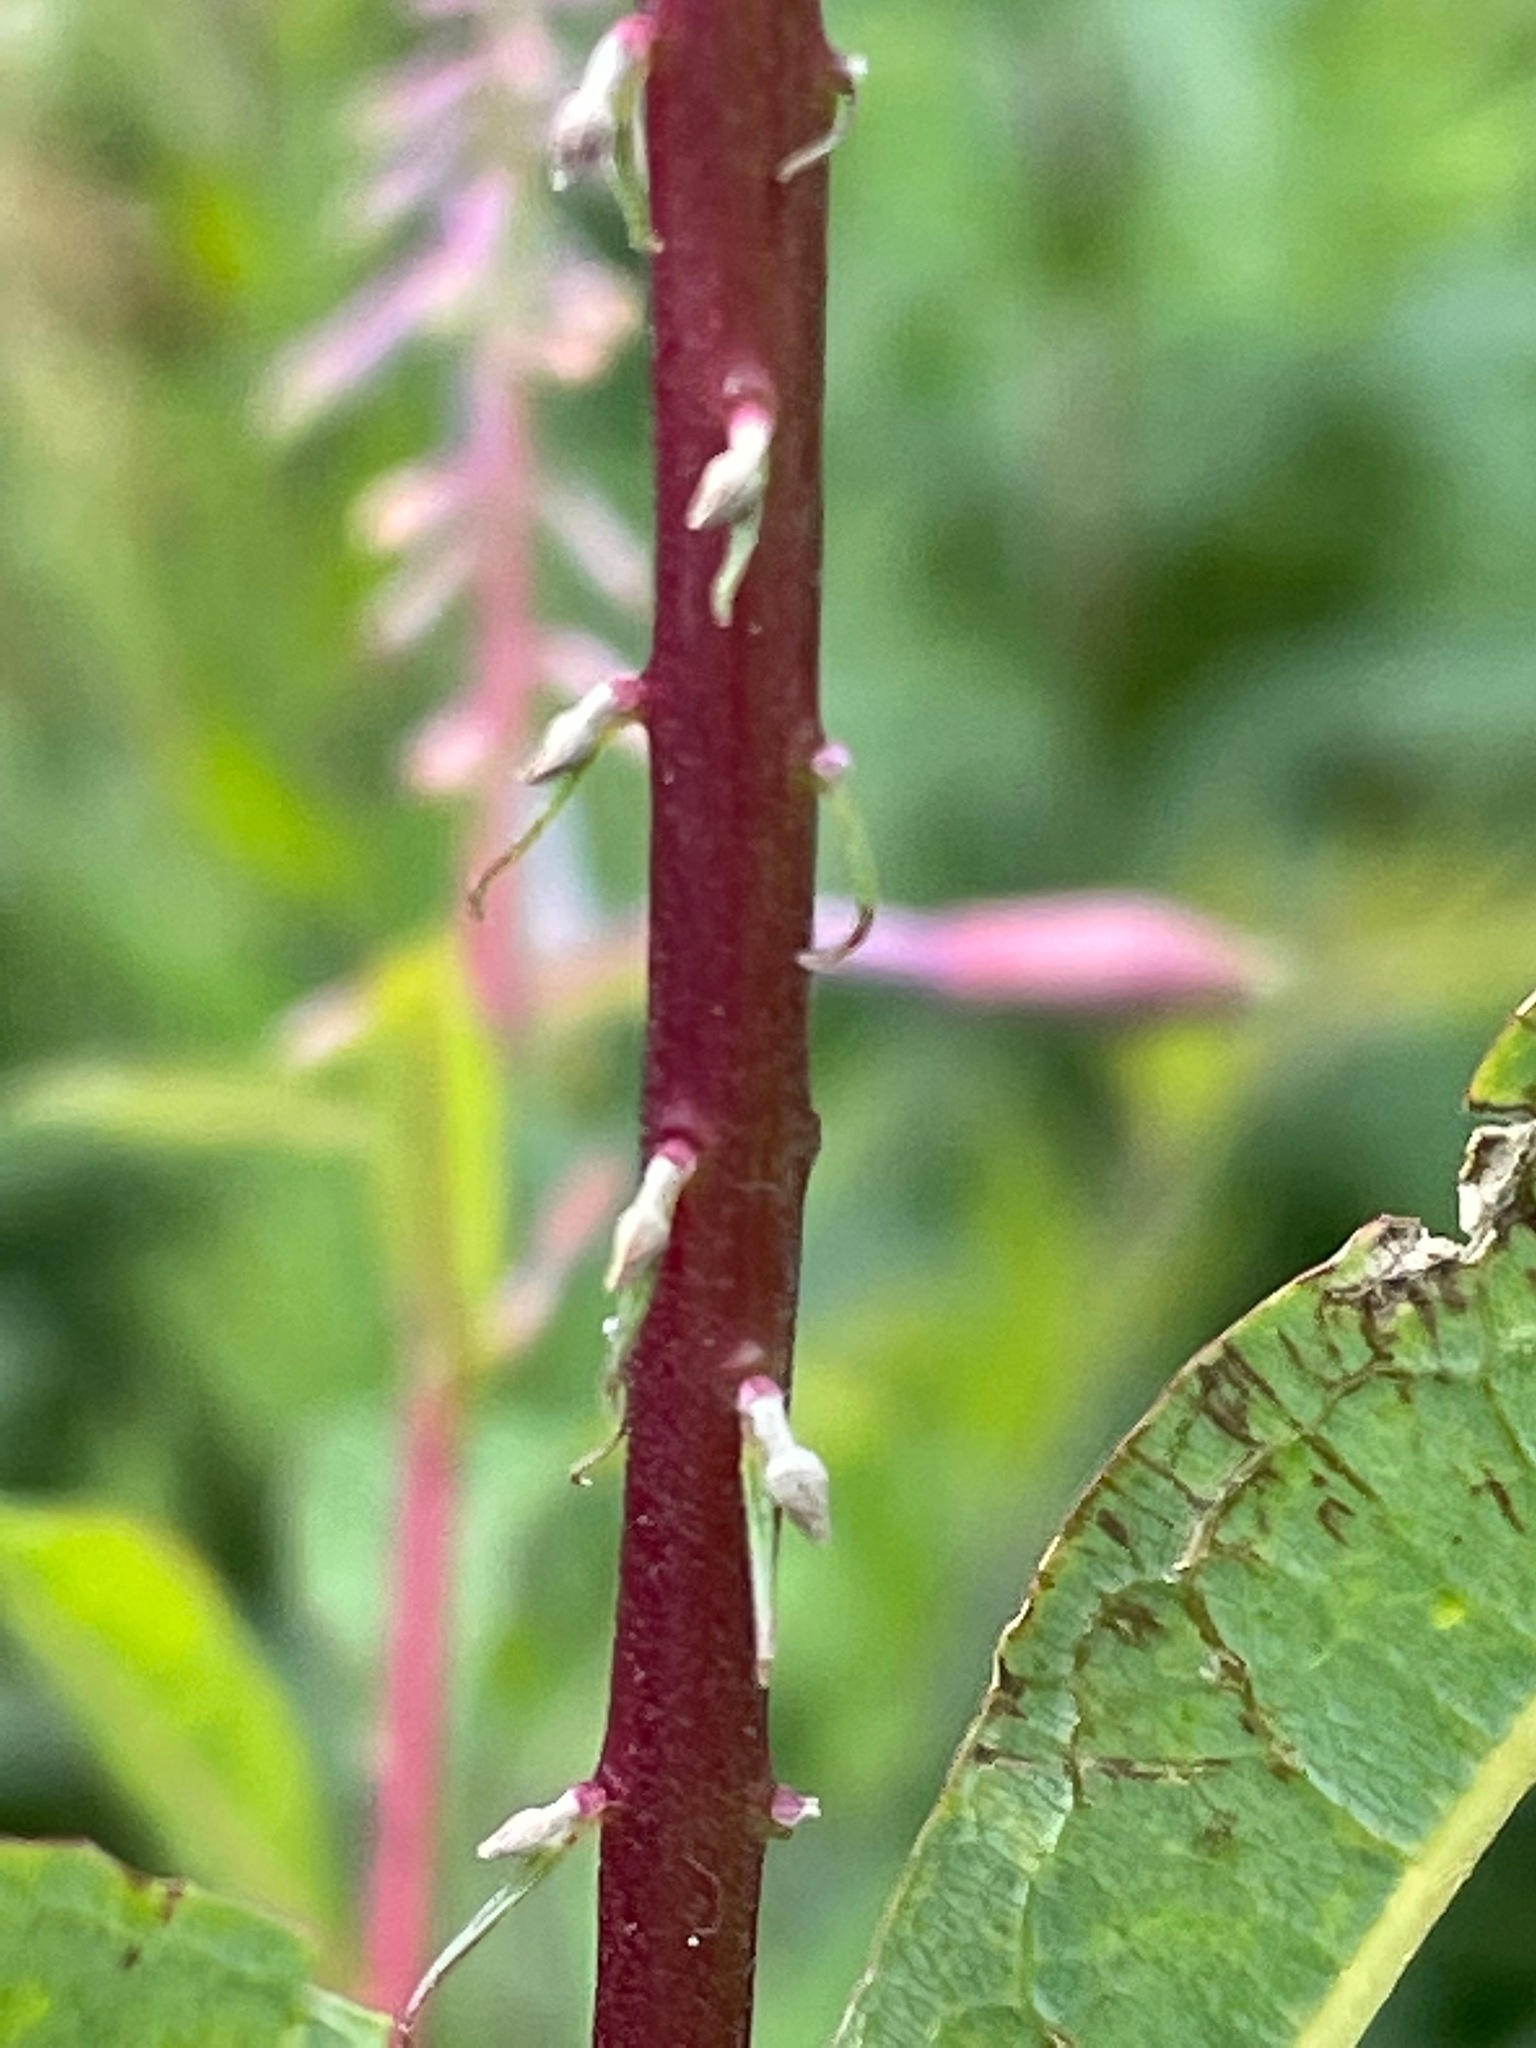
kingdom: Plantae
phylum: Tracheophyta
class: Magnoliopsida
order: Myrtales
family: Onagraceae
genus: Chamaenerion
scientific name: Chamaenerion angustifolium
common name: Fireweed
